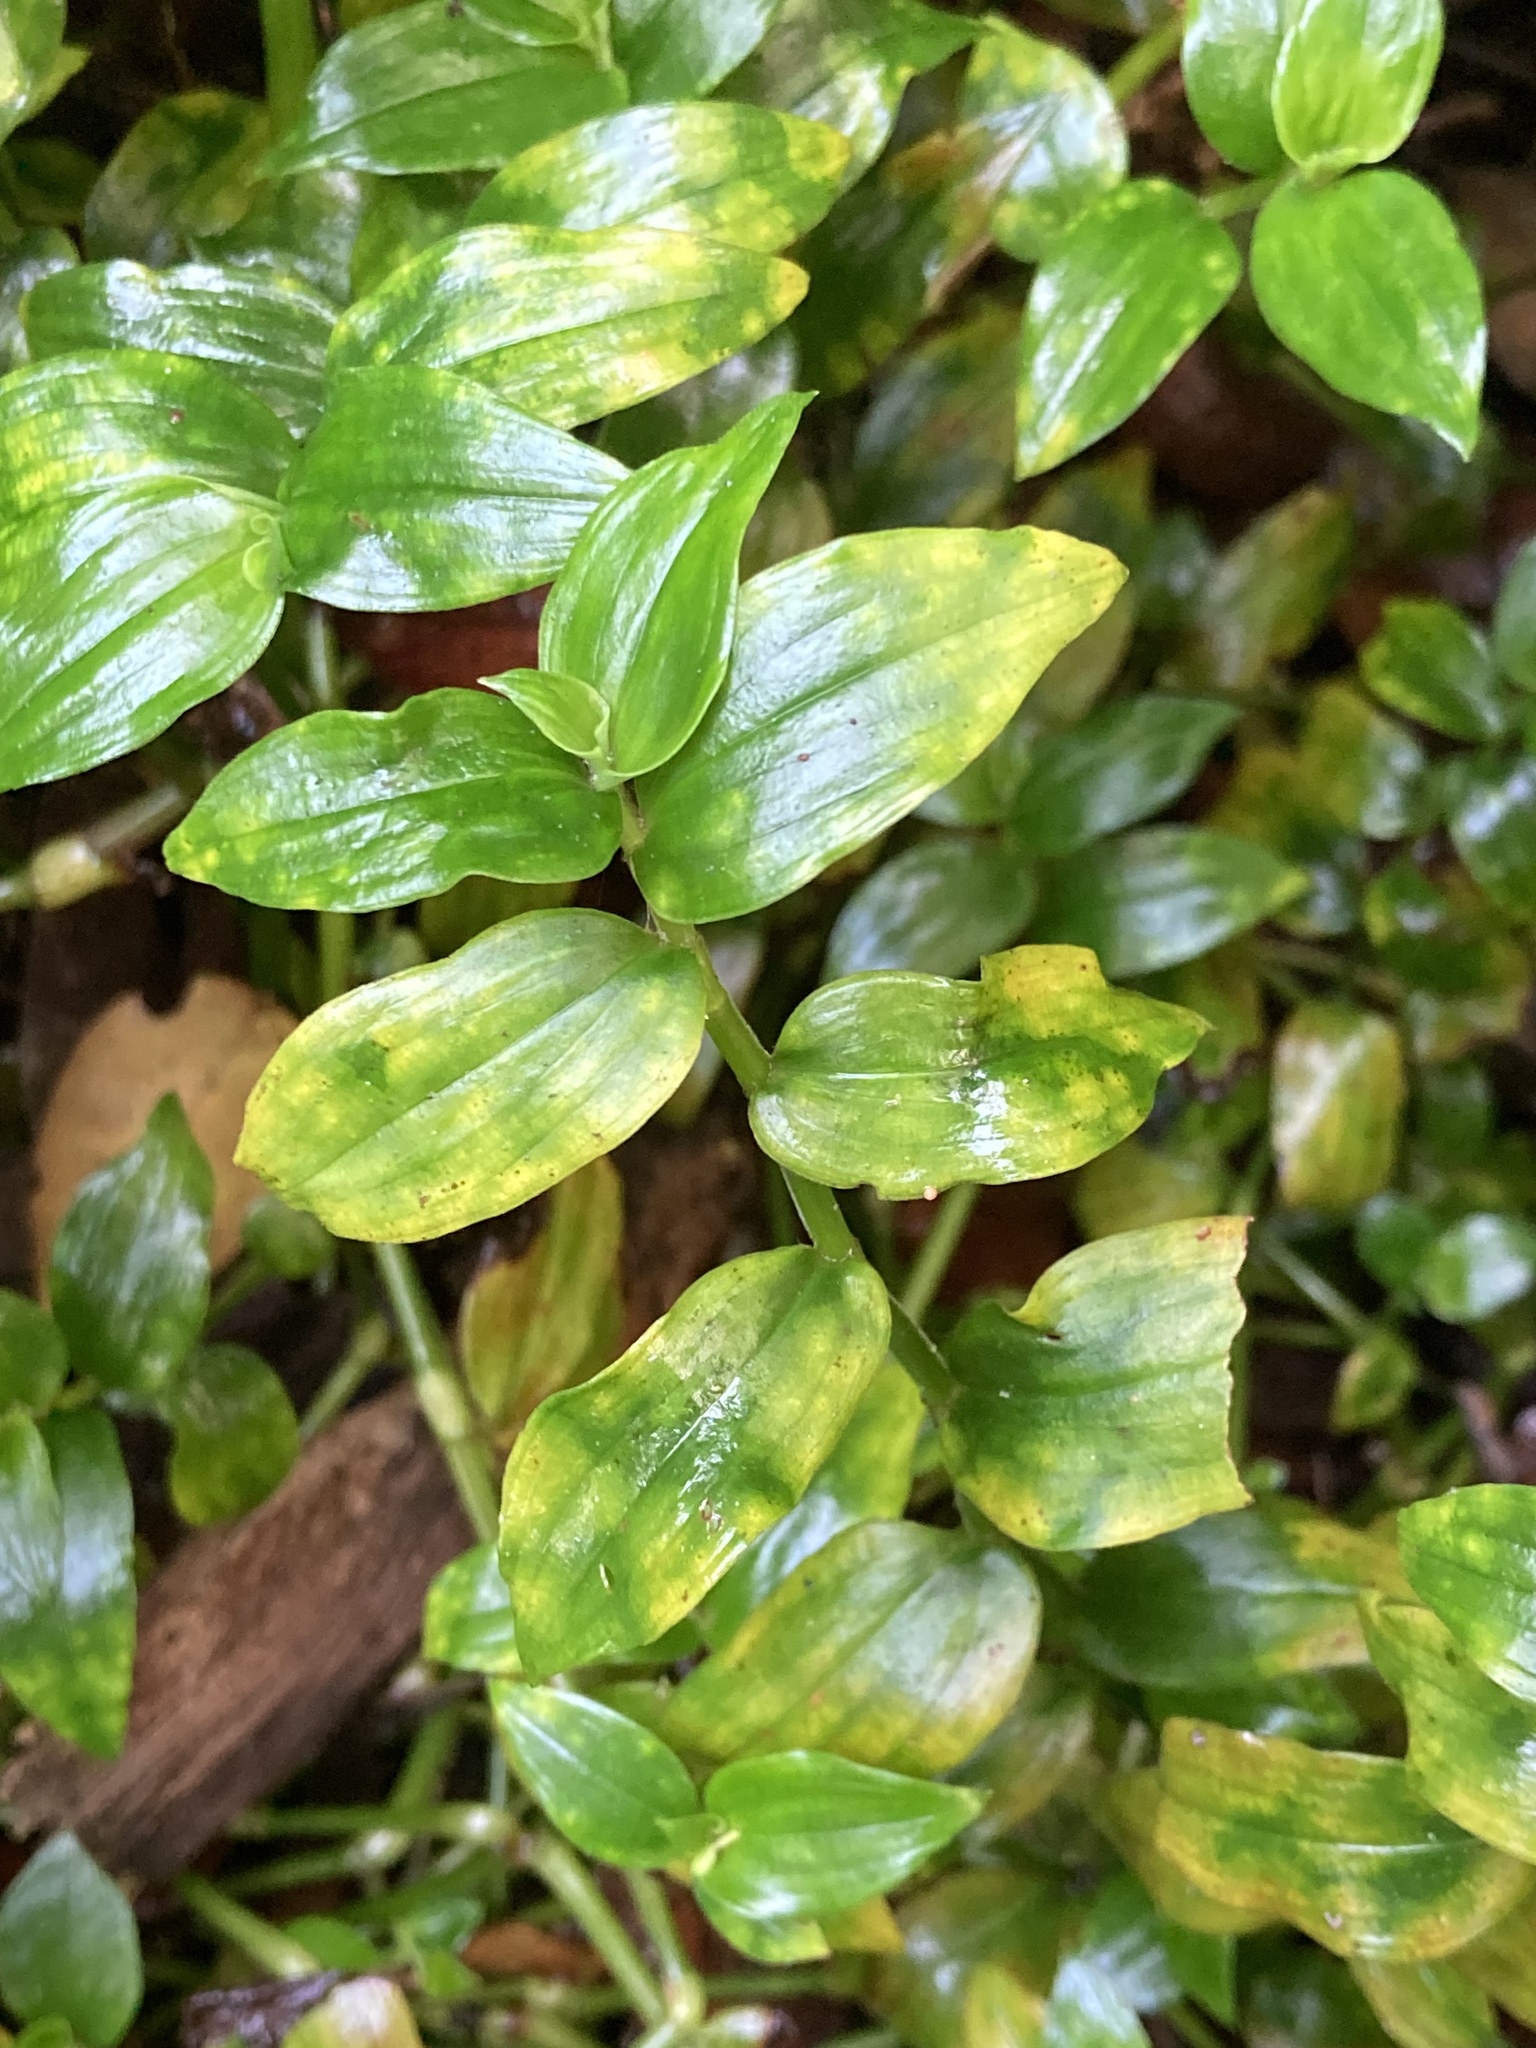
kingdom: Fungi
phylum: Basidiomycota
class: Exobasidiomycetes
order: Exobasidiales
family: Brachybasidiaceae
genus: Kordyana
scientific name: Kordyana brasiliensis
